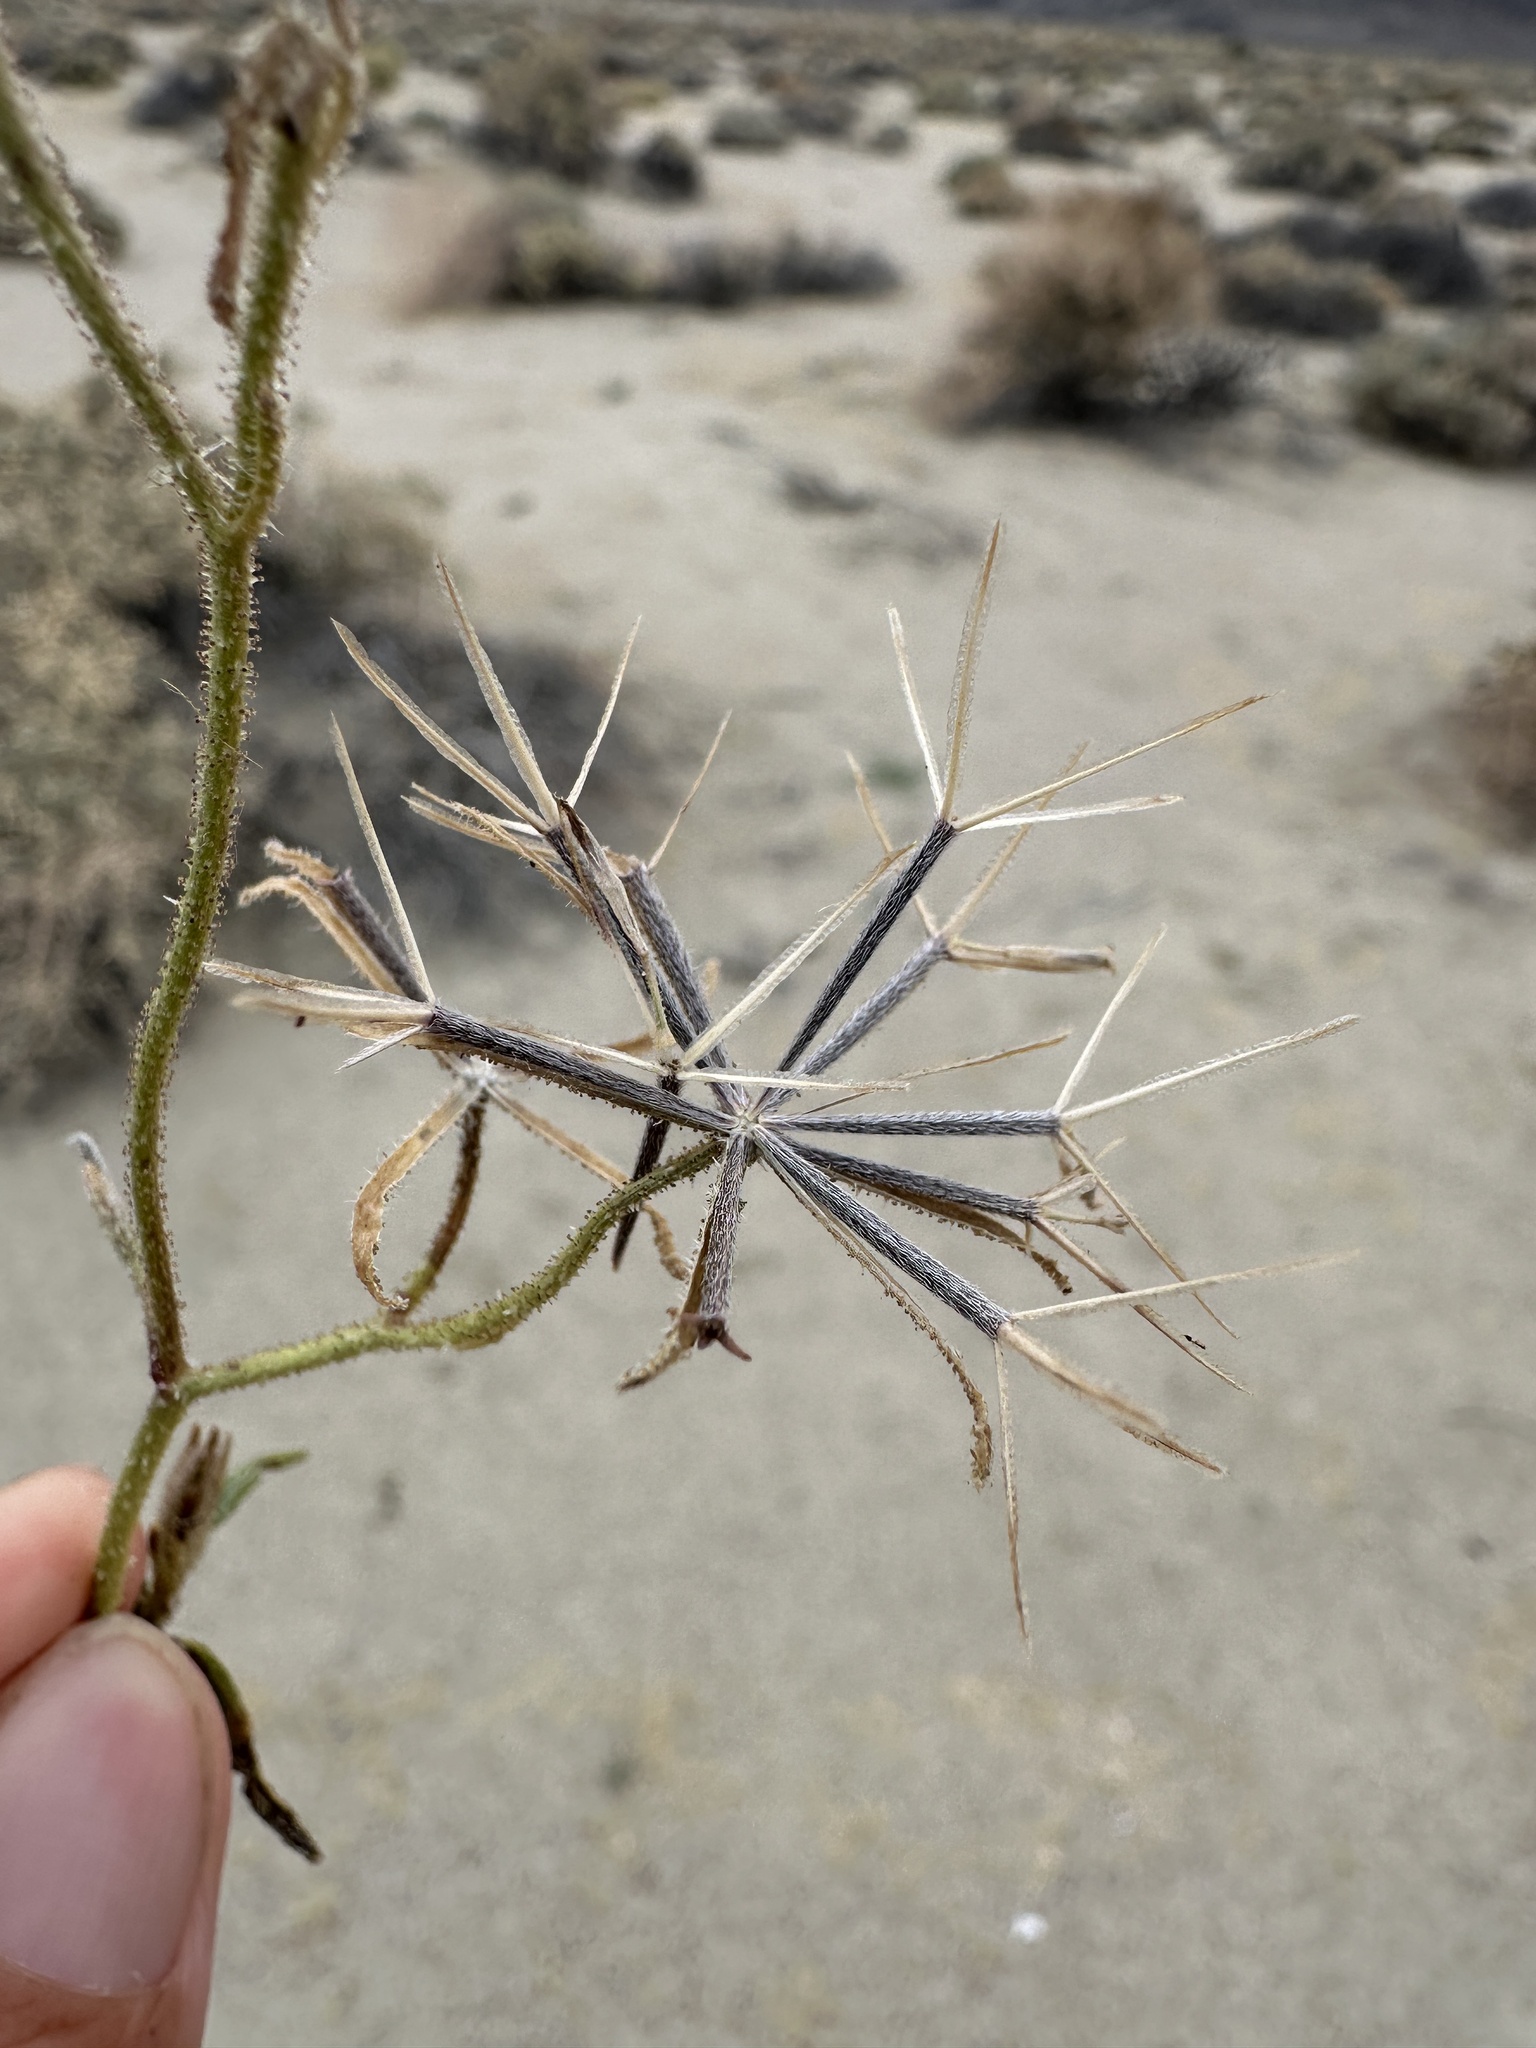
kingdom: Plantae
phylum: Tracheophyta
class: Magnoliopsida
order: Asterales
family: Asteraceae
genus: Palafoxia
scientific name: Palafoxia arida
